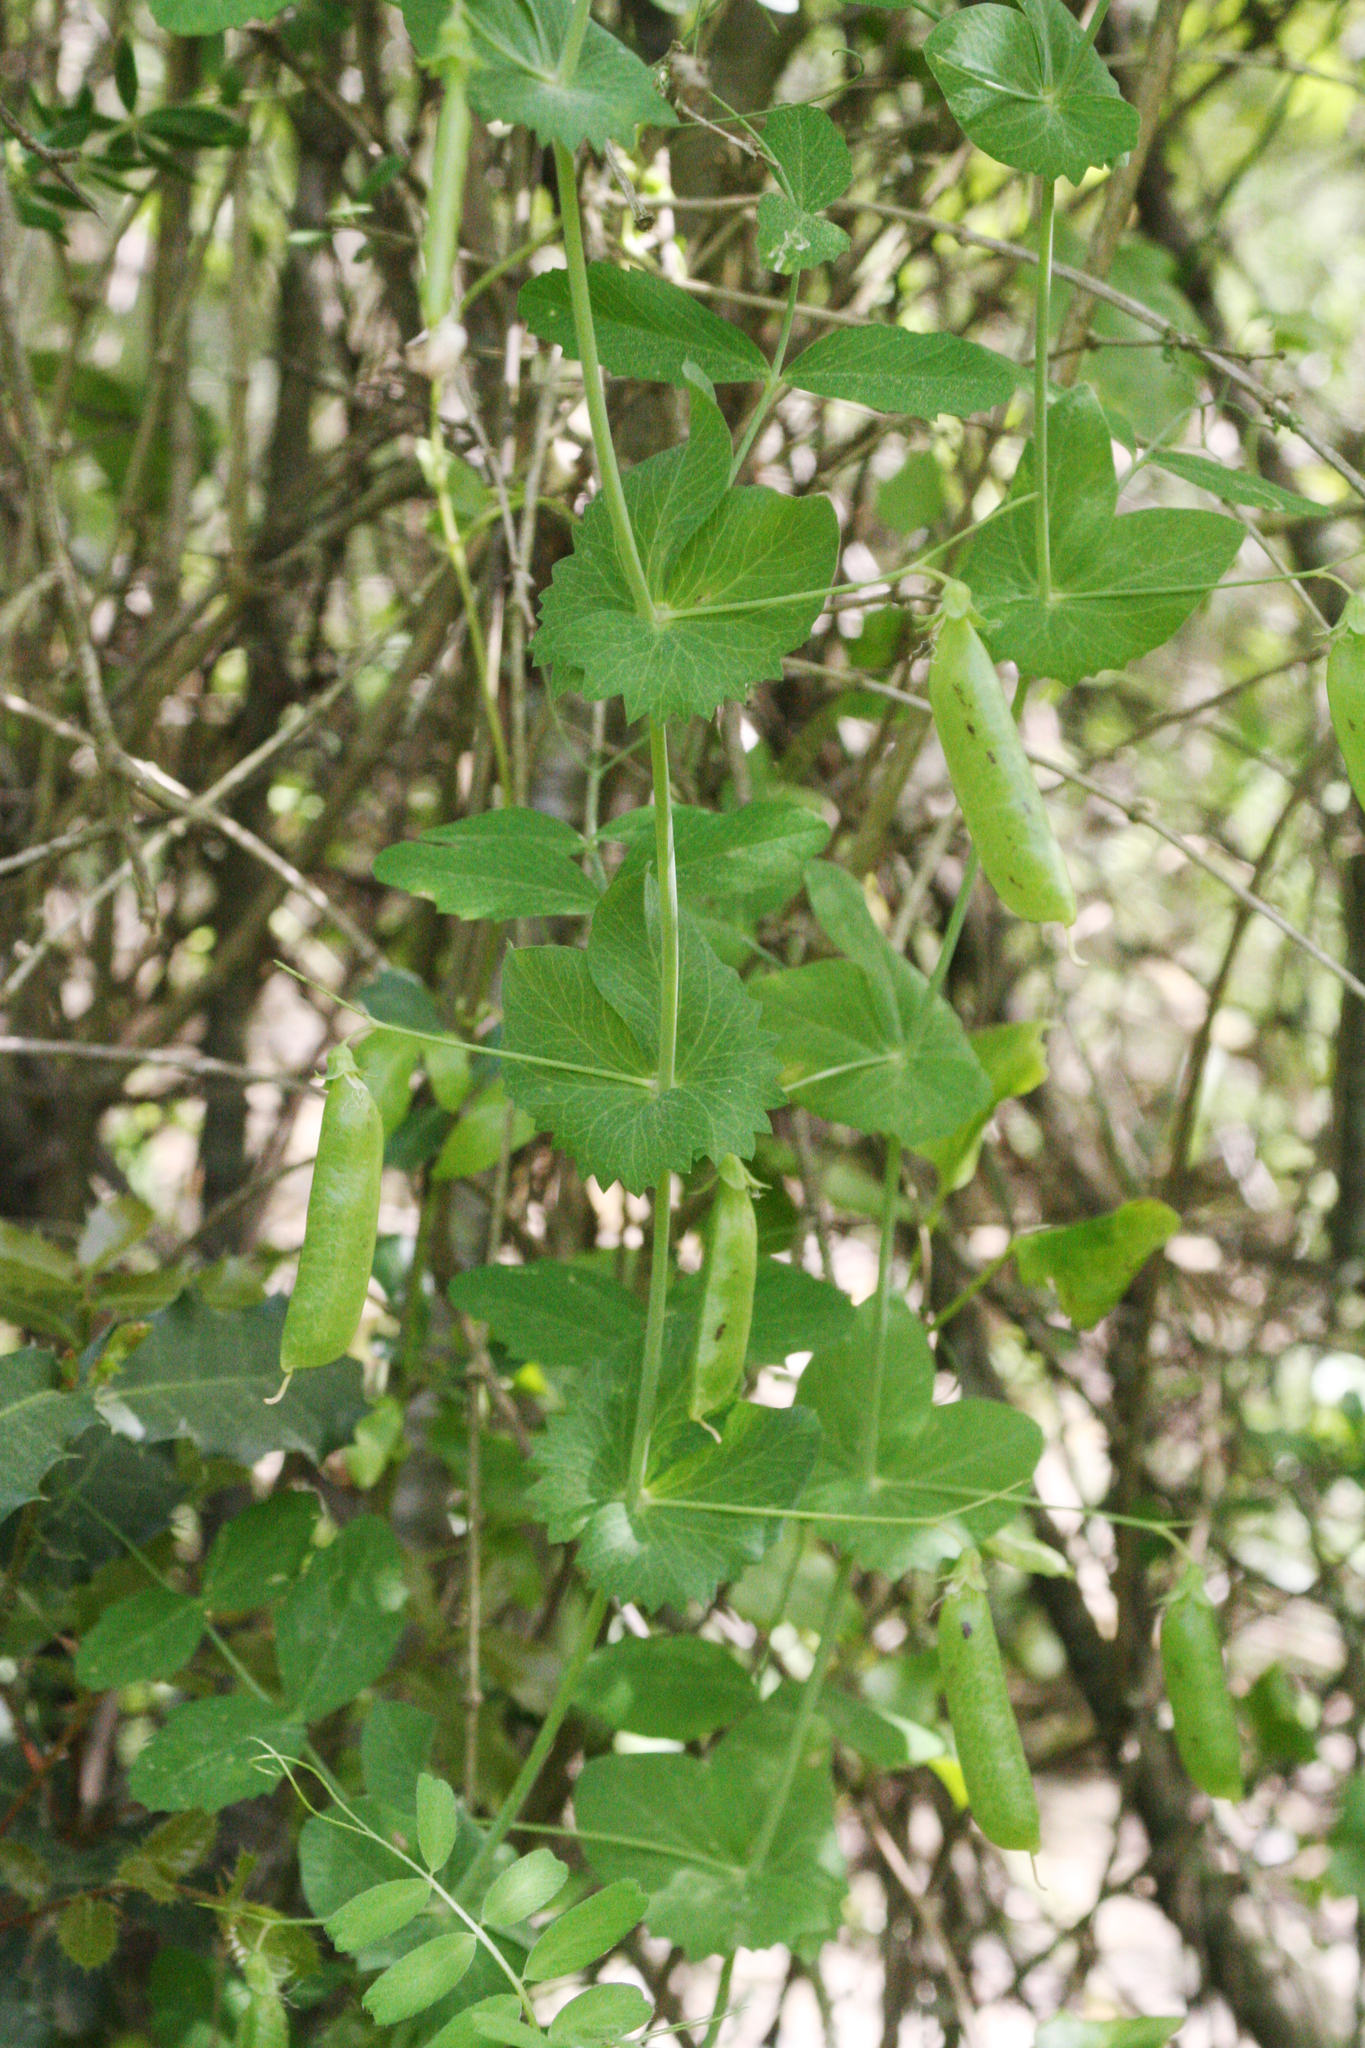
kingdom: Plantae
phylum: Tracheophyta
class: Magnoliopsida
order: Fabales
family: Fabaceae
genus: Lathyrus
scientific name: Lathyrus fulvus
